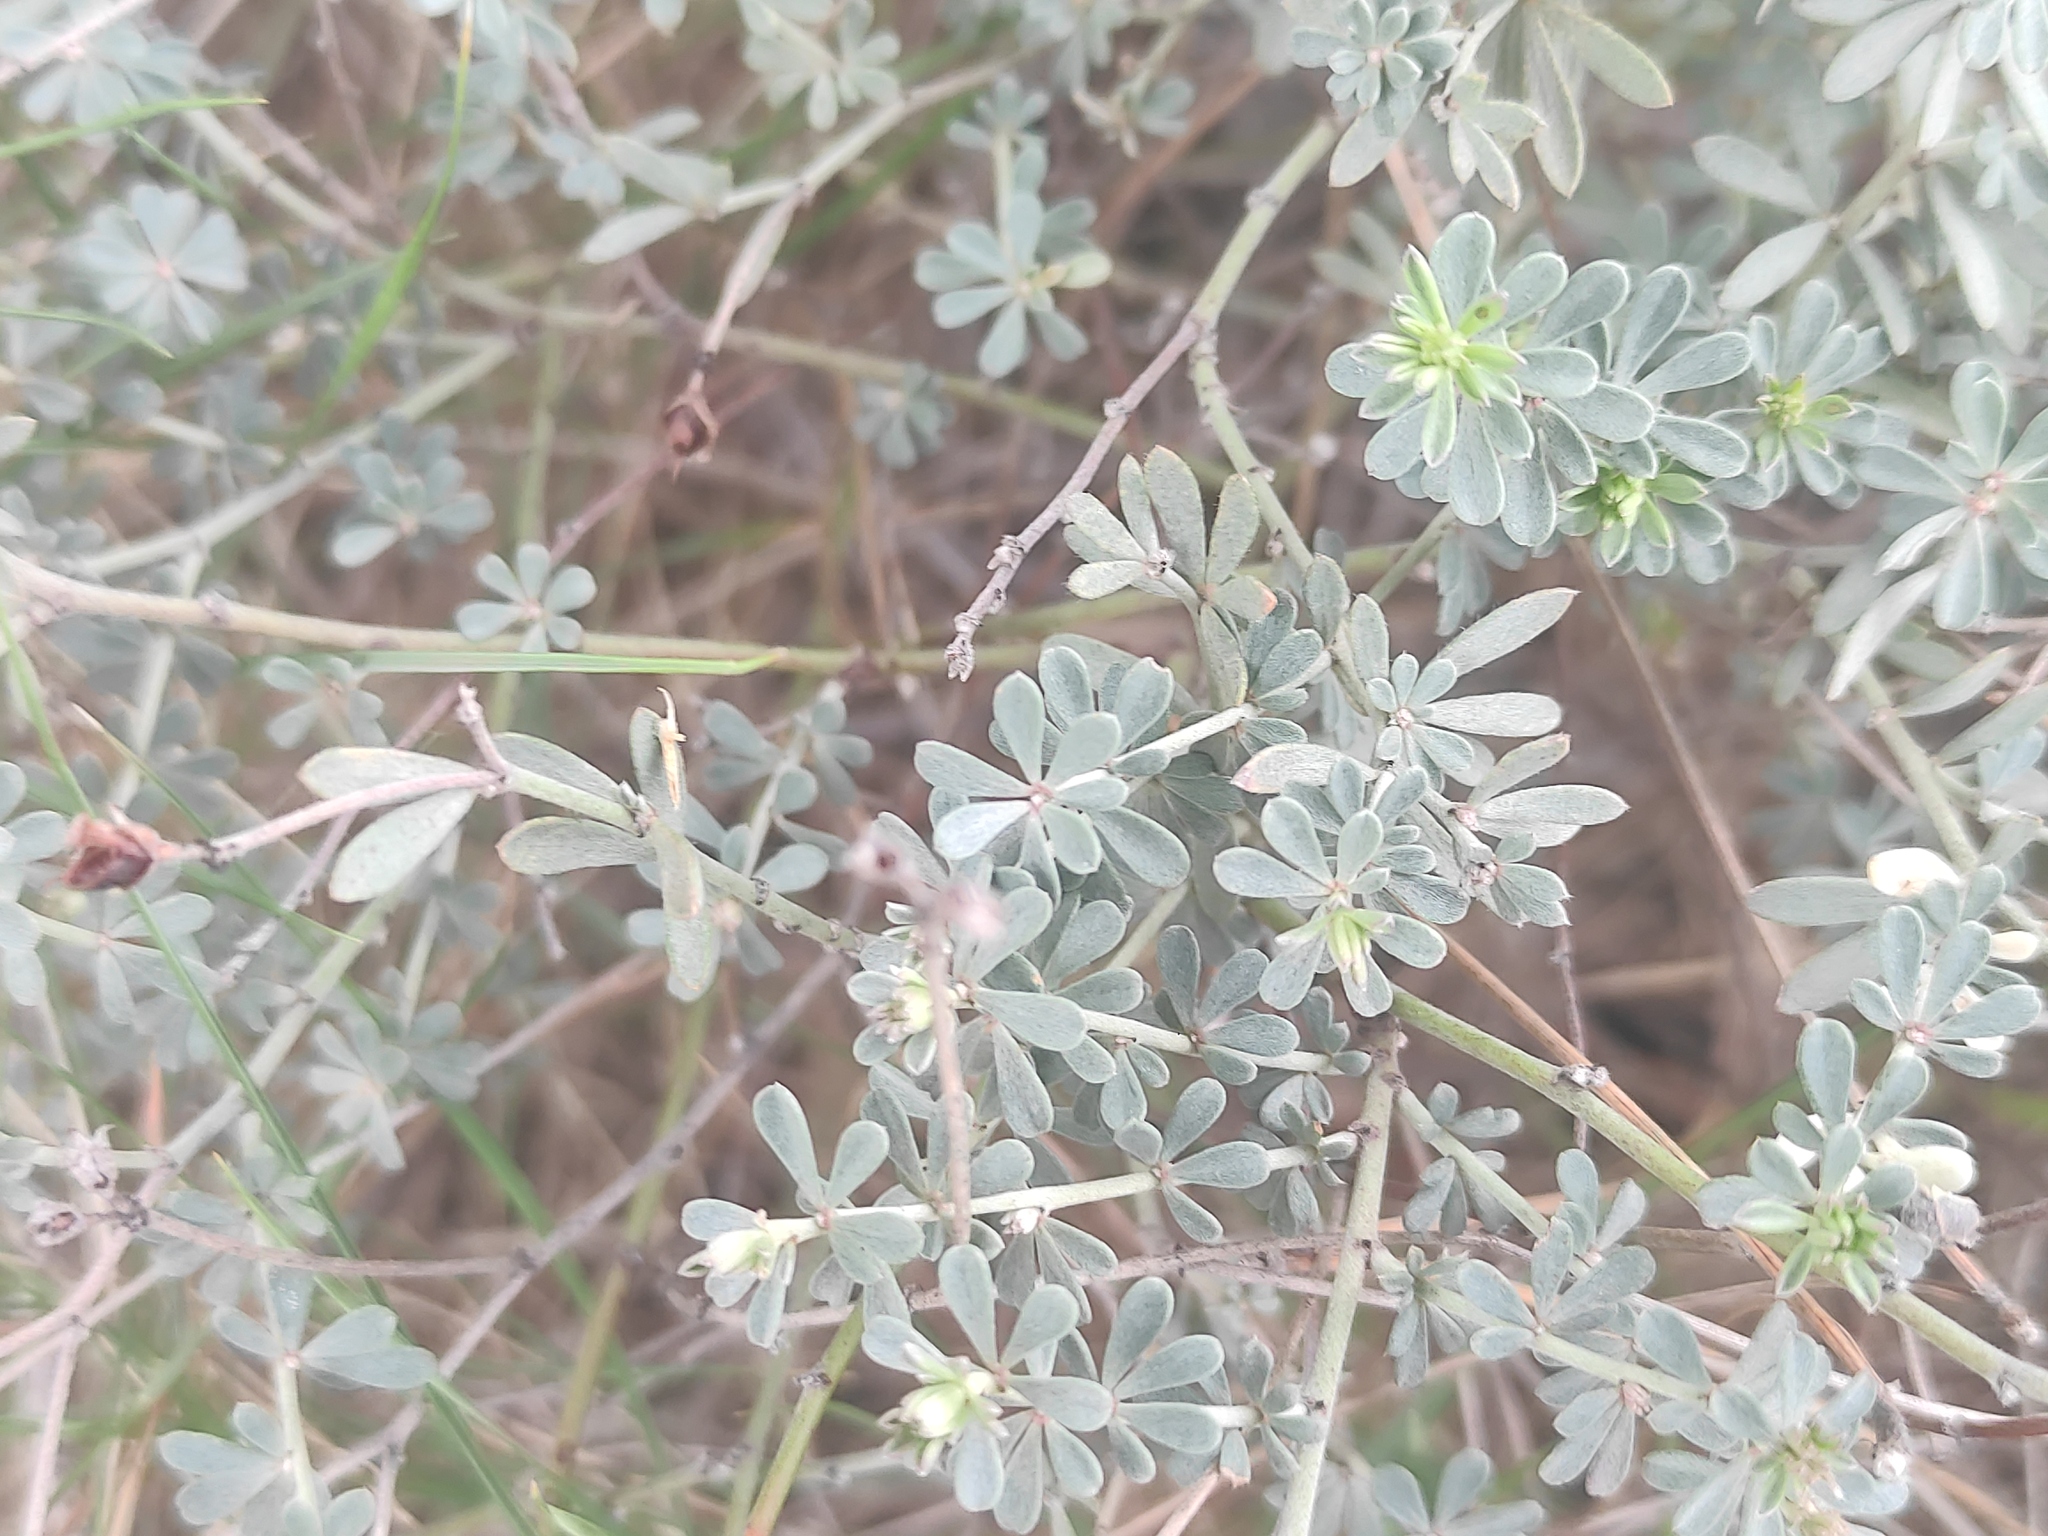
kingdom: Plantae
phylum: Tracheophyta
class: Magnoliopsida
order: Fabales
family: Fabaceae
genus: Lotus
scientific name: Lotus dorycnium
